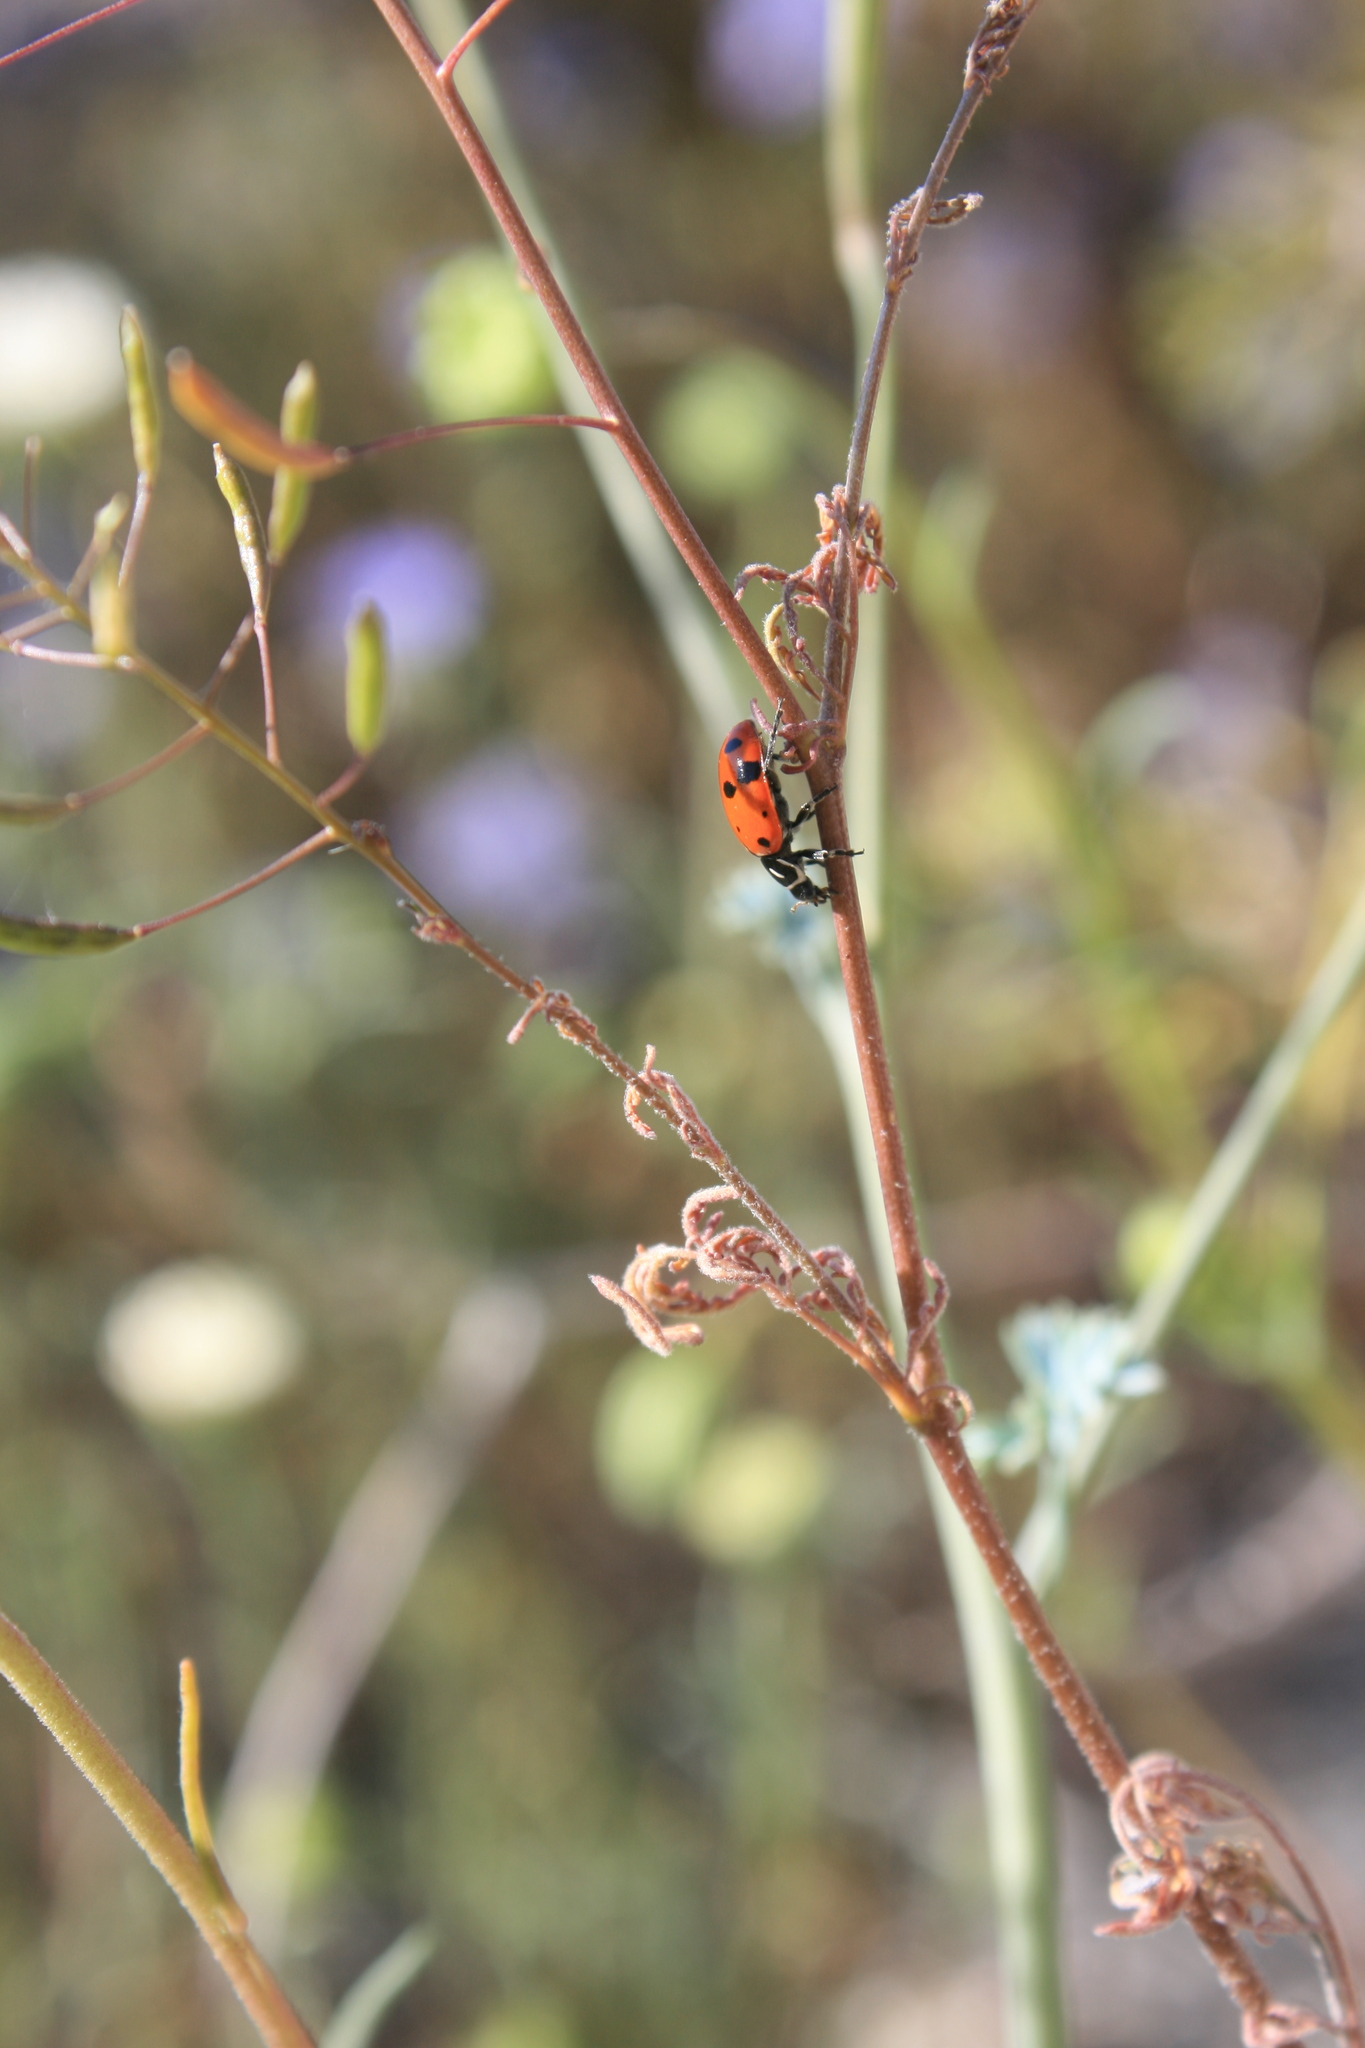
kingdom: Animalia
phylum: Arthropoda
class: Insecta
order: Coleoptera
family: Coccinellidae
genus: Hippodamia
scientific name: Hippodamia convergens
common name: Convergent lady beetle
